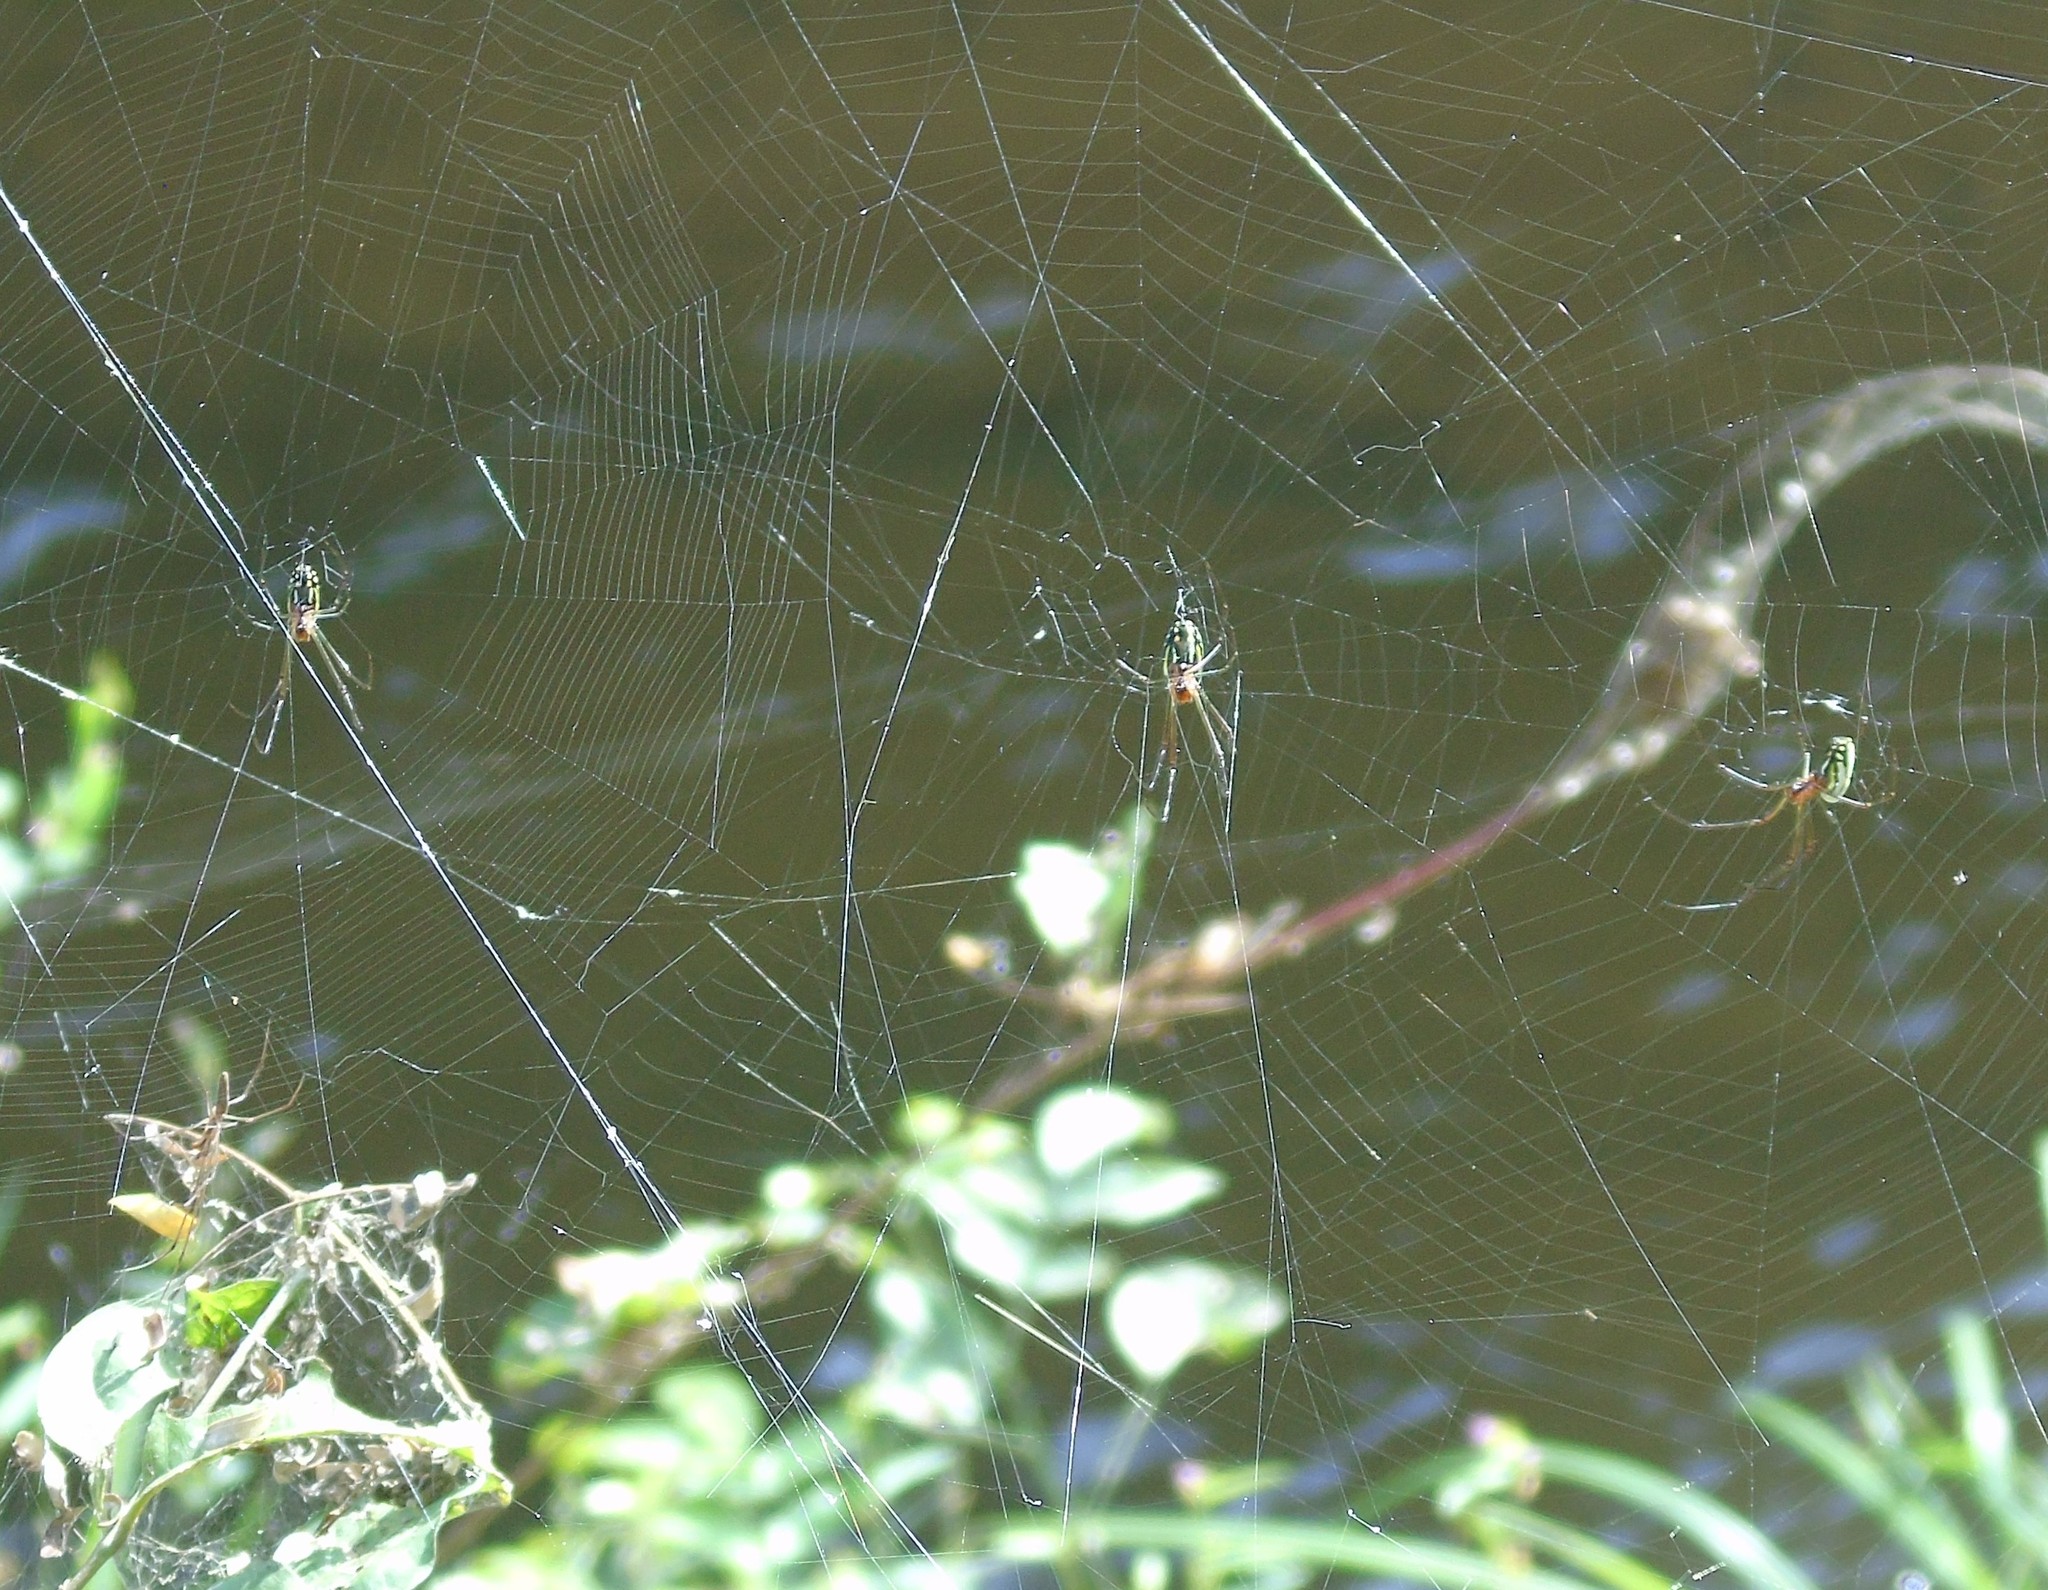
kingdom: Animalia
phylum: Arthropoda
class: Arachnida
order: Araneae
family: Tetragnathidae
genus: Leucauge
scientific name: Leucauge
